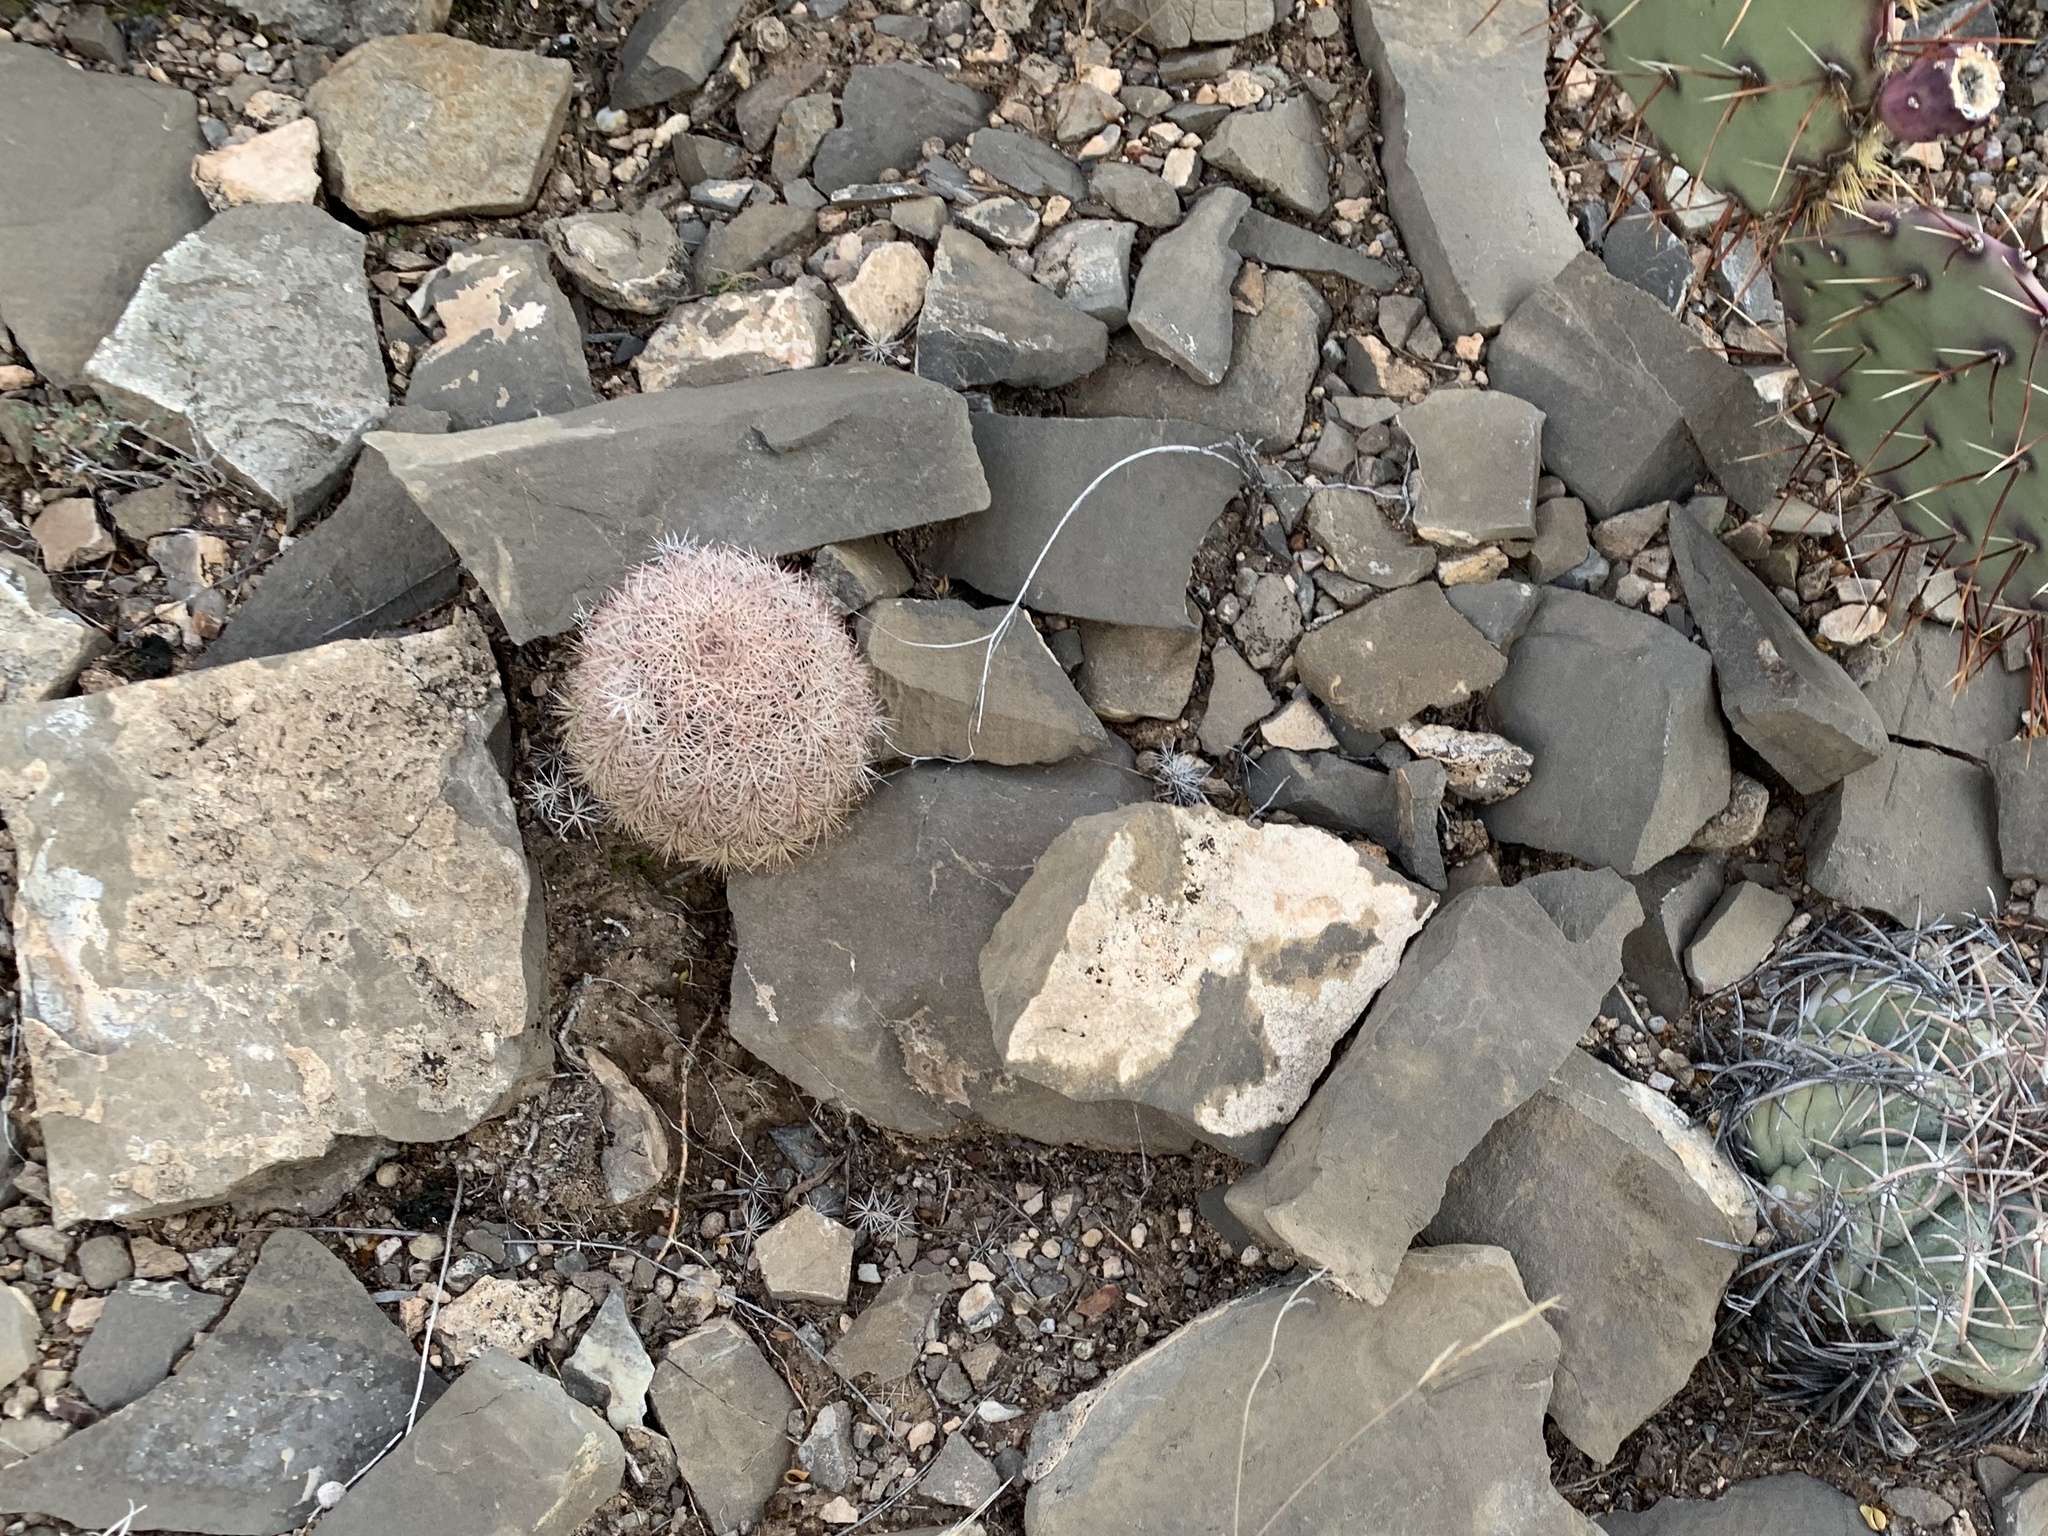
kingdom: Plantae
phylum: Tracheophyta
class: Magnoliopsida
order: Caryophyllales
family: Cactaceae
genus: Echinocereus
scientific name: Echinocereus dasyacanthus
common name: Spiny hedgehog cactus
